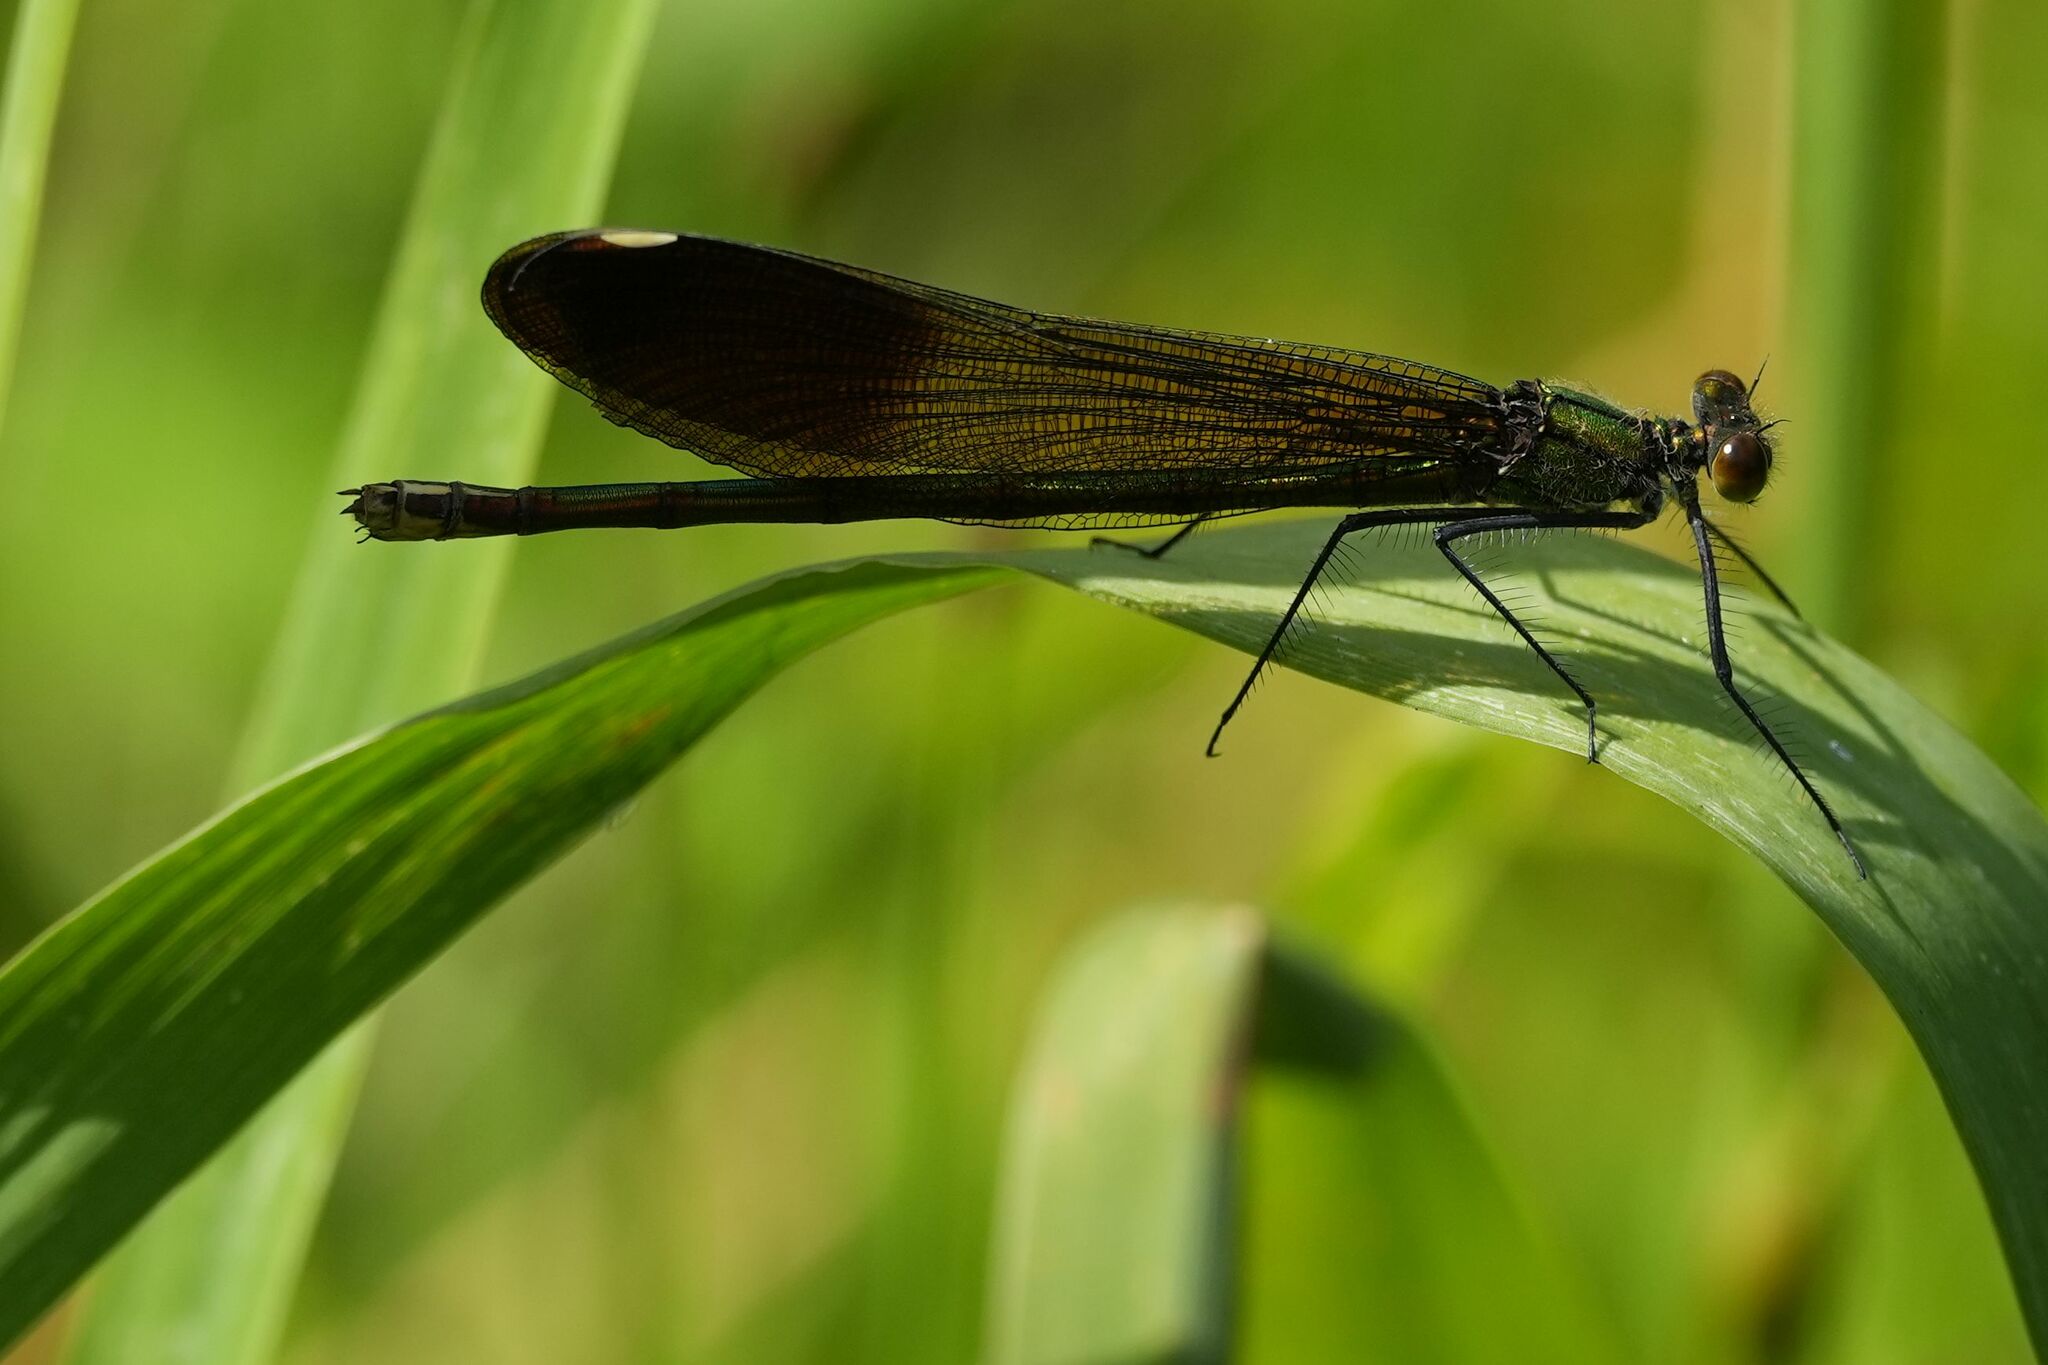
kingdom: Animalia
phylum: Arthropoda
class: Insecta
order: Odonata
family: Calopterygidae
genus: Calopteryx
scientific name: Calopteryx aequabilis
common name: River jewelwing
